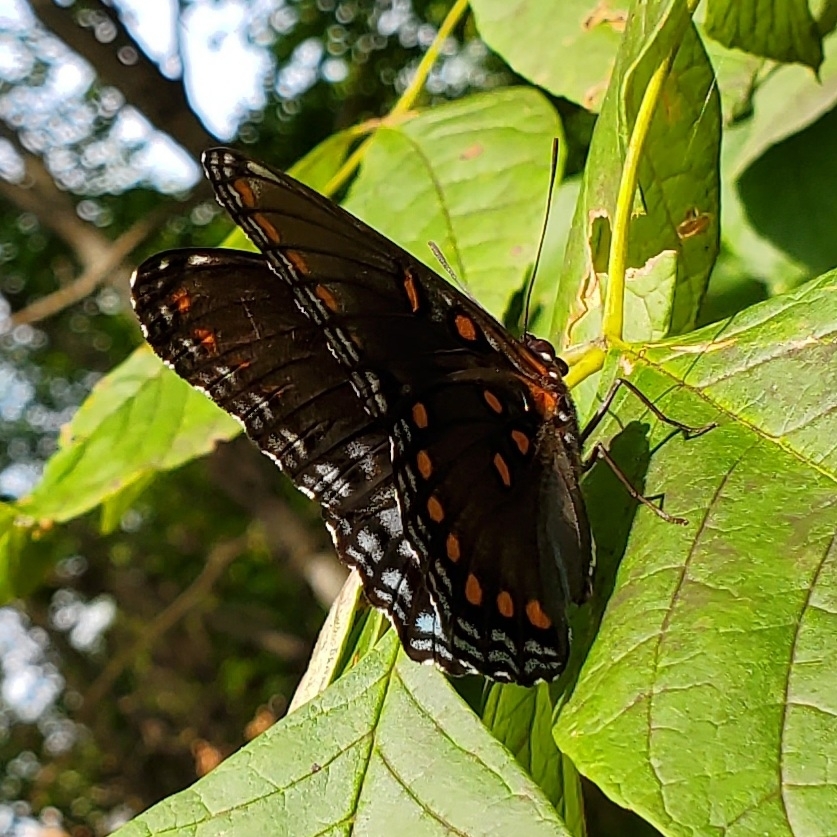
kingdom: Animalia
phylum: Arthropoda
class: Insecta
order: Lepidoptera
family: Nymphalidae
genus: Limenitis
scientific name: Limenitis arthemis
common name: Red-spotted admiral
